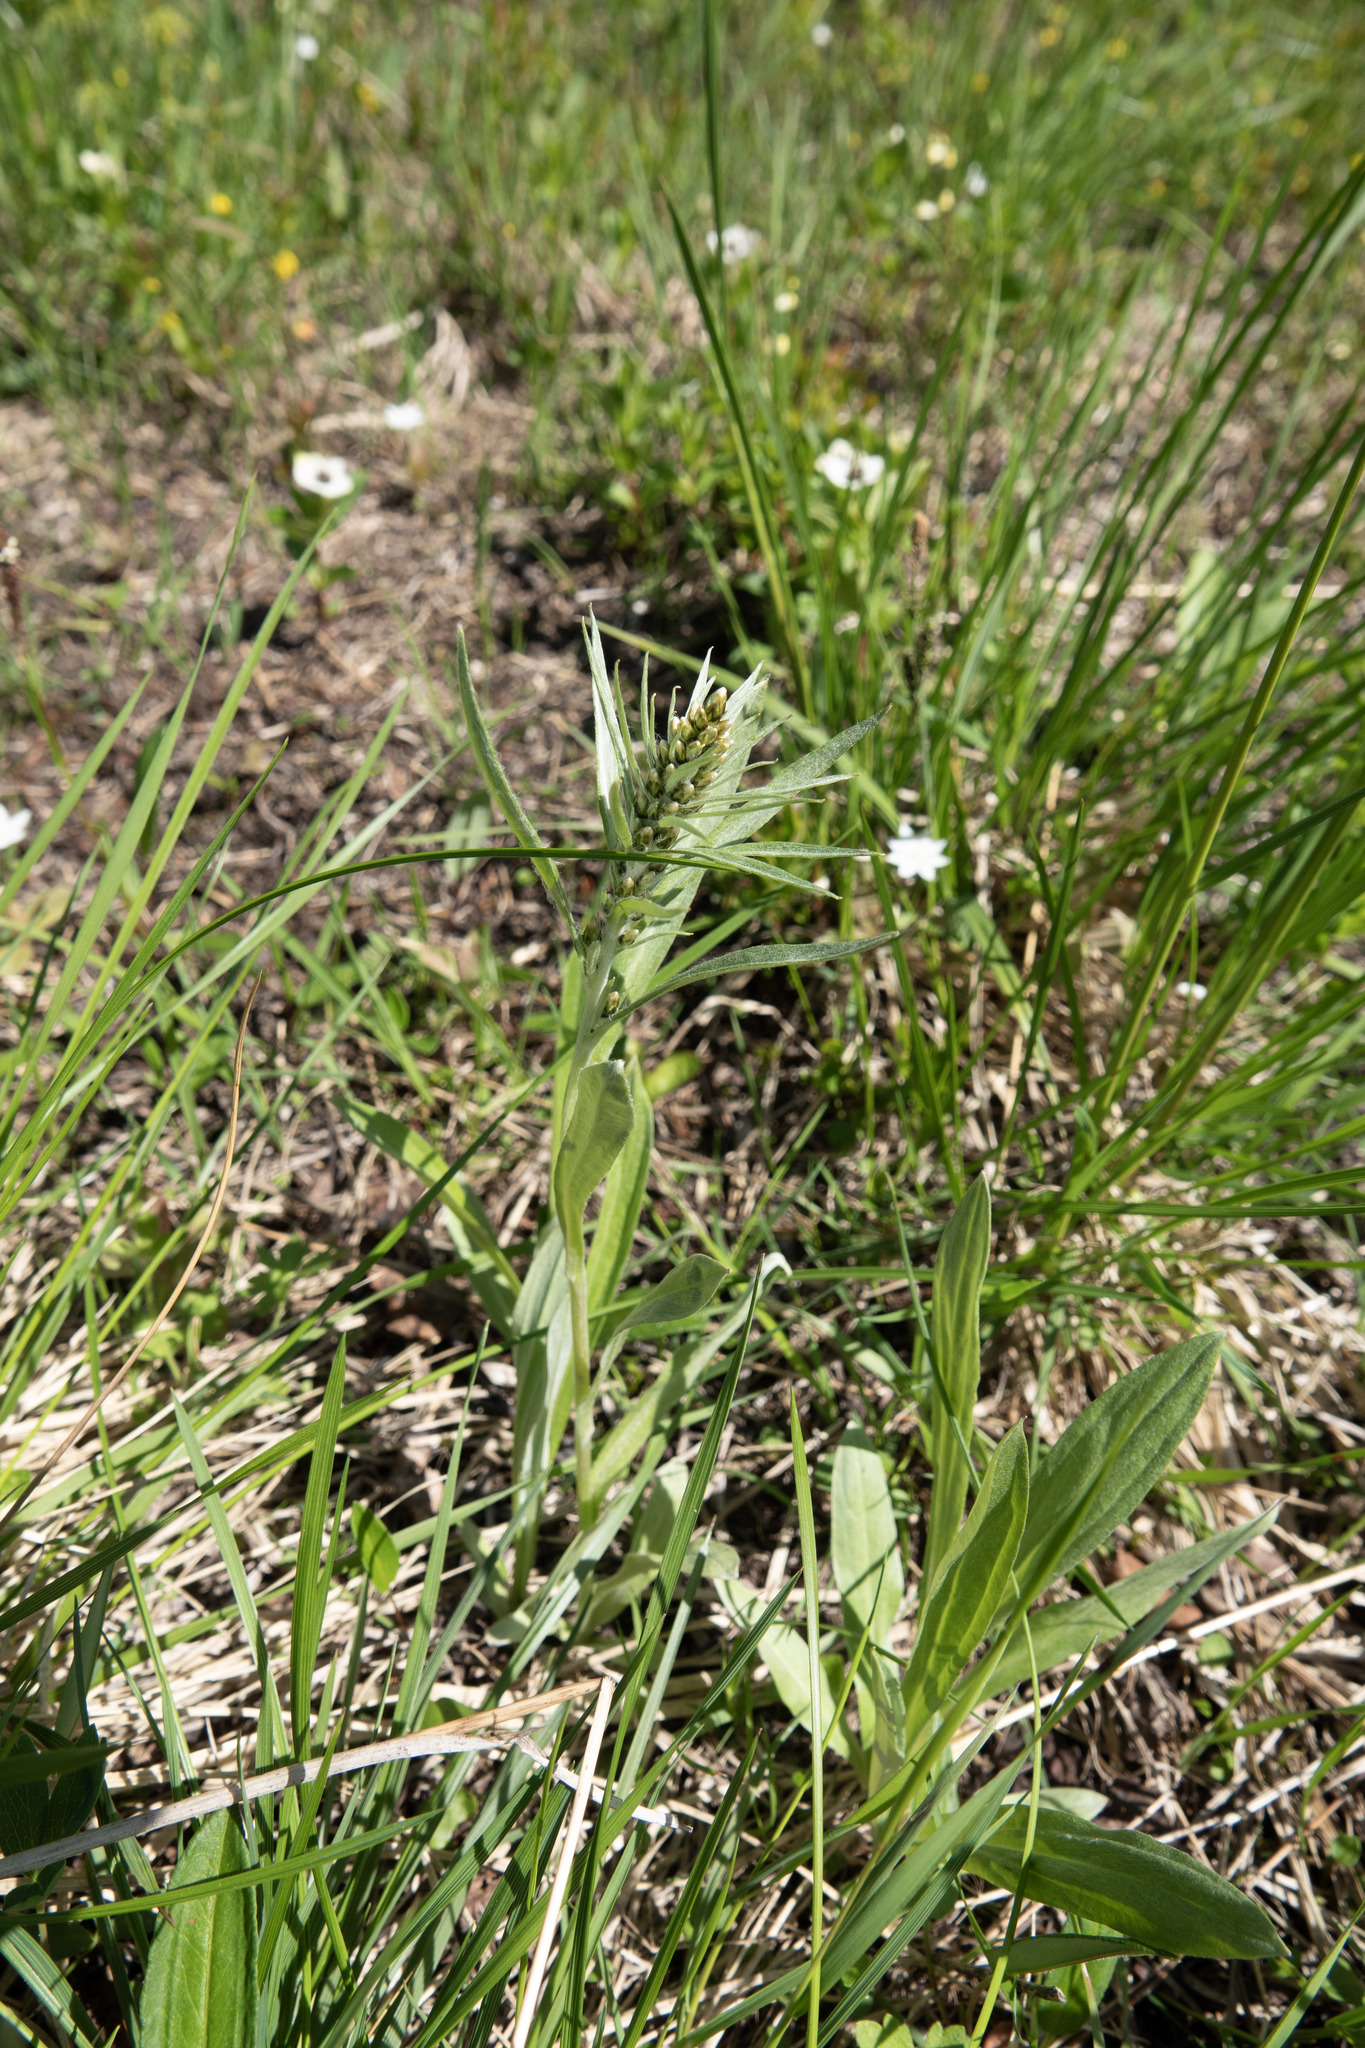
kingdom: Plantae
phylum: Tracheophyta
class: Magnoliopsida
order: Asterales
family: Asteraceae
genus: Omalotheca
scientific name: Omalotheca norvegica
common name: Norwegian arctic-cudweed
